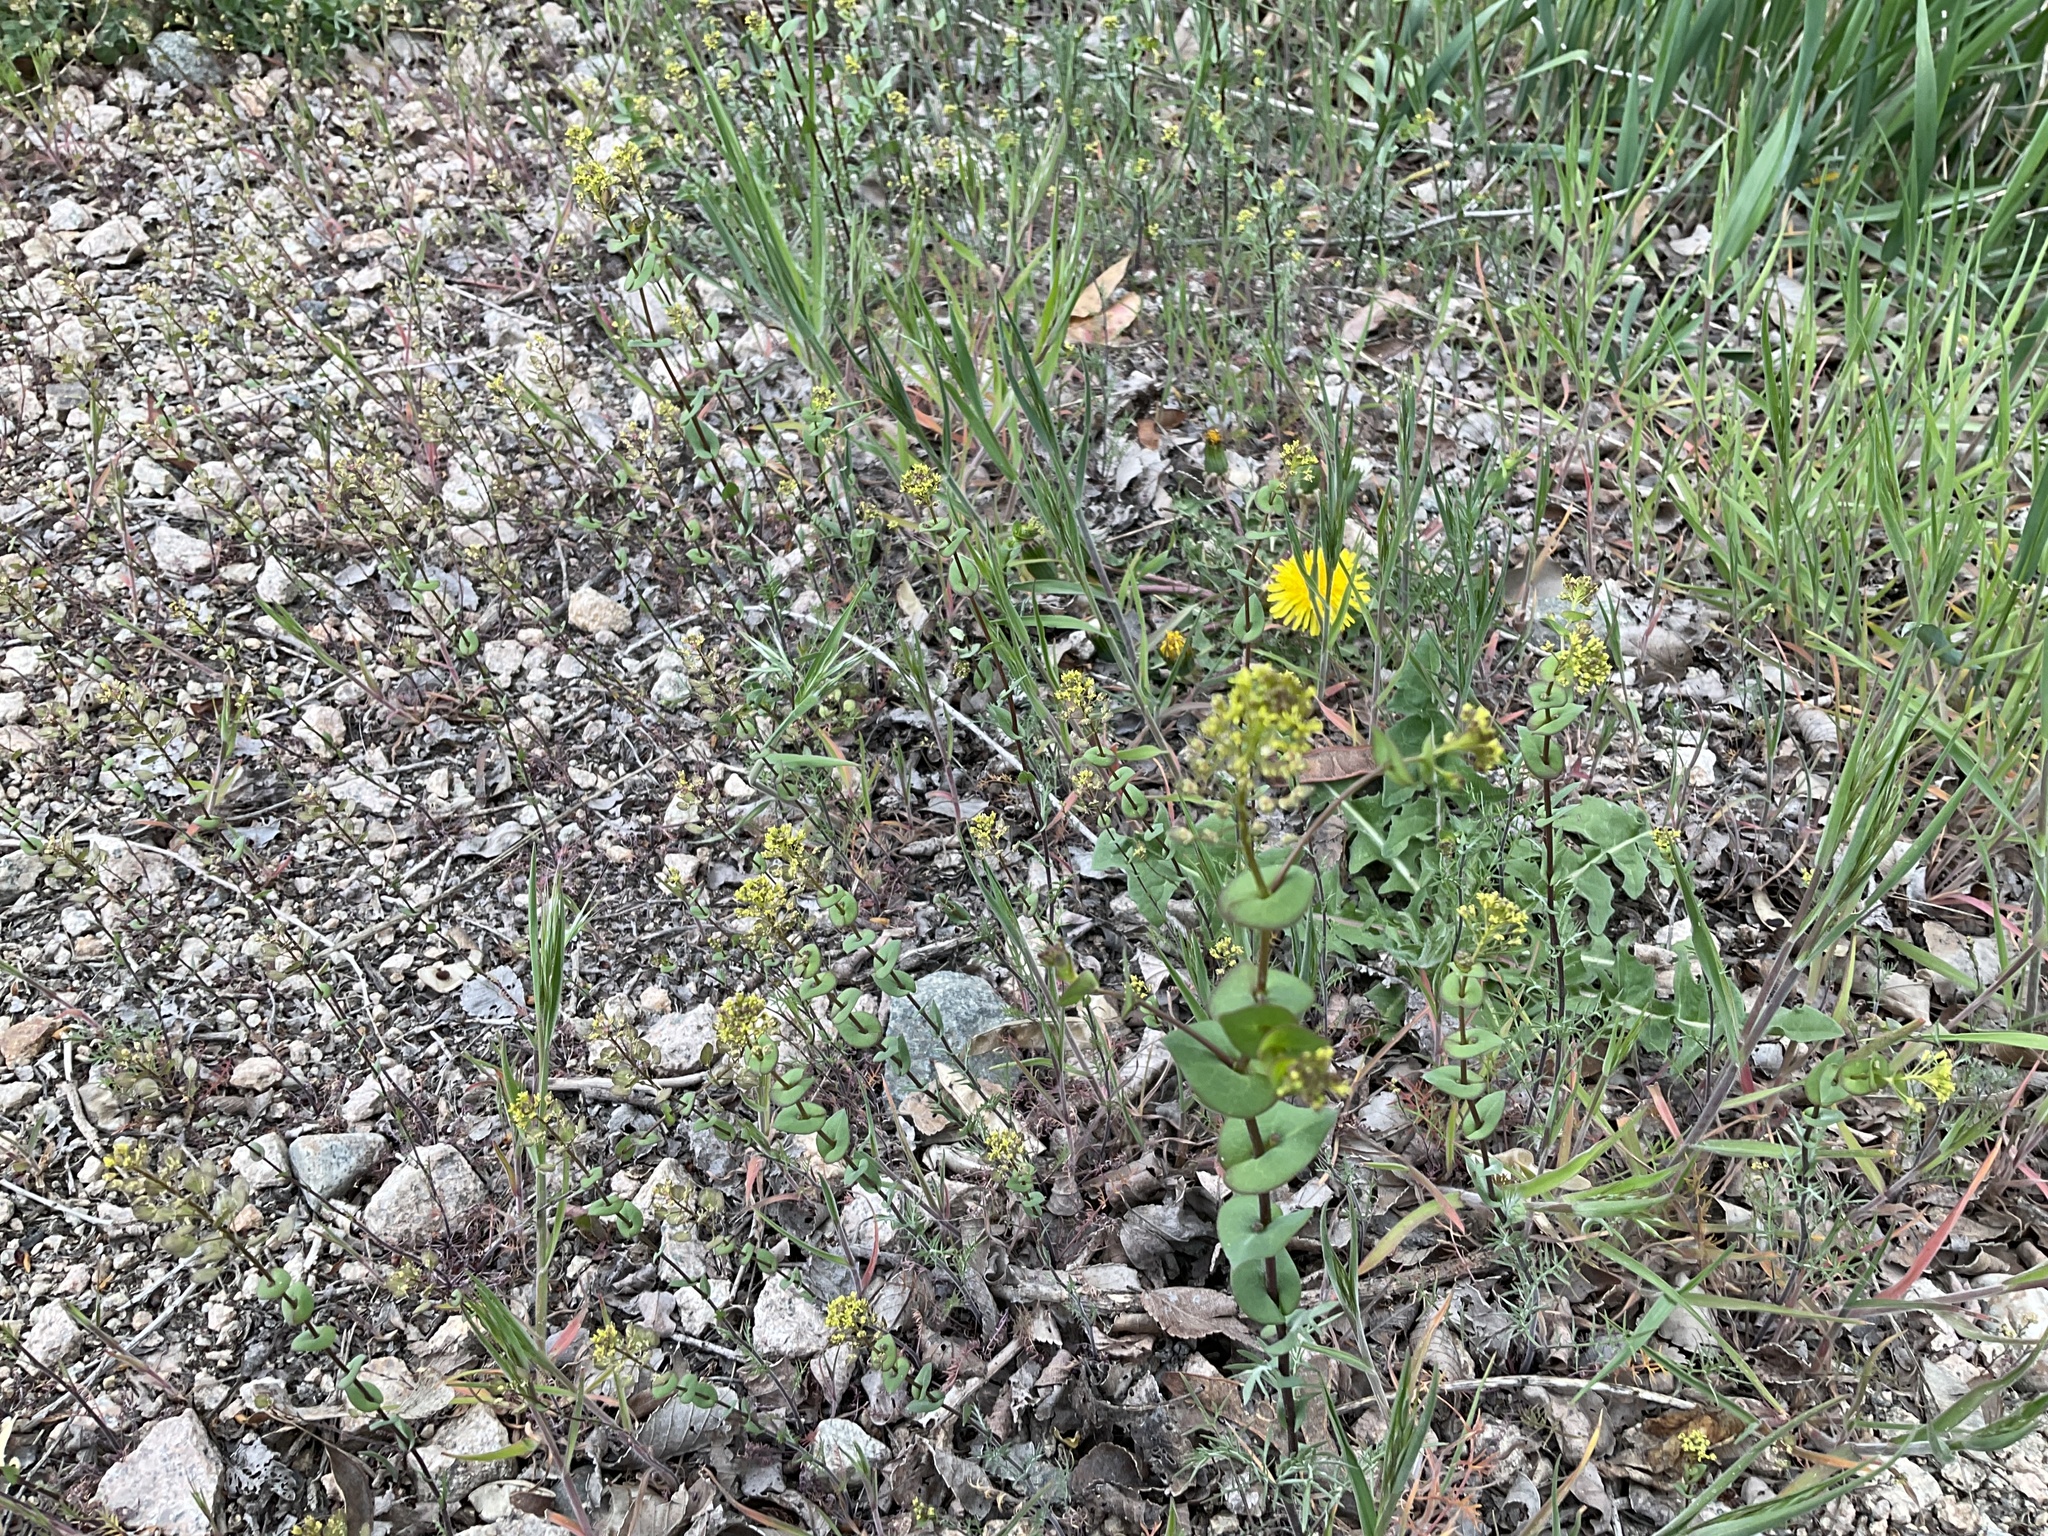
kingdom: Plantae
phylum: Tracheophyta
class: Magnoliopsida
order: Brassicales
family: Brassicaceae
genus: Lepidium
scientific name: Lepidium perfoliatum
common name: Perfoliate pepperwort
